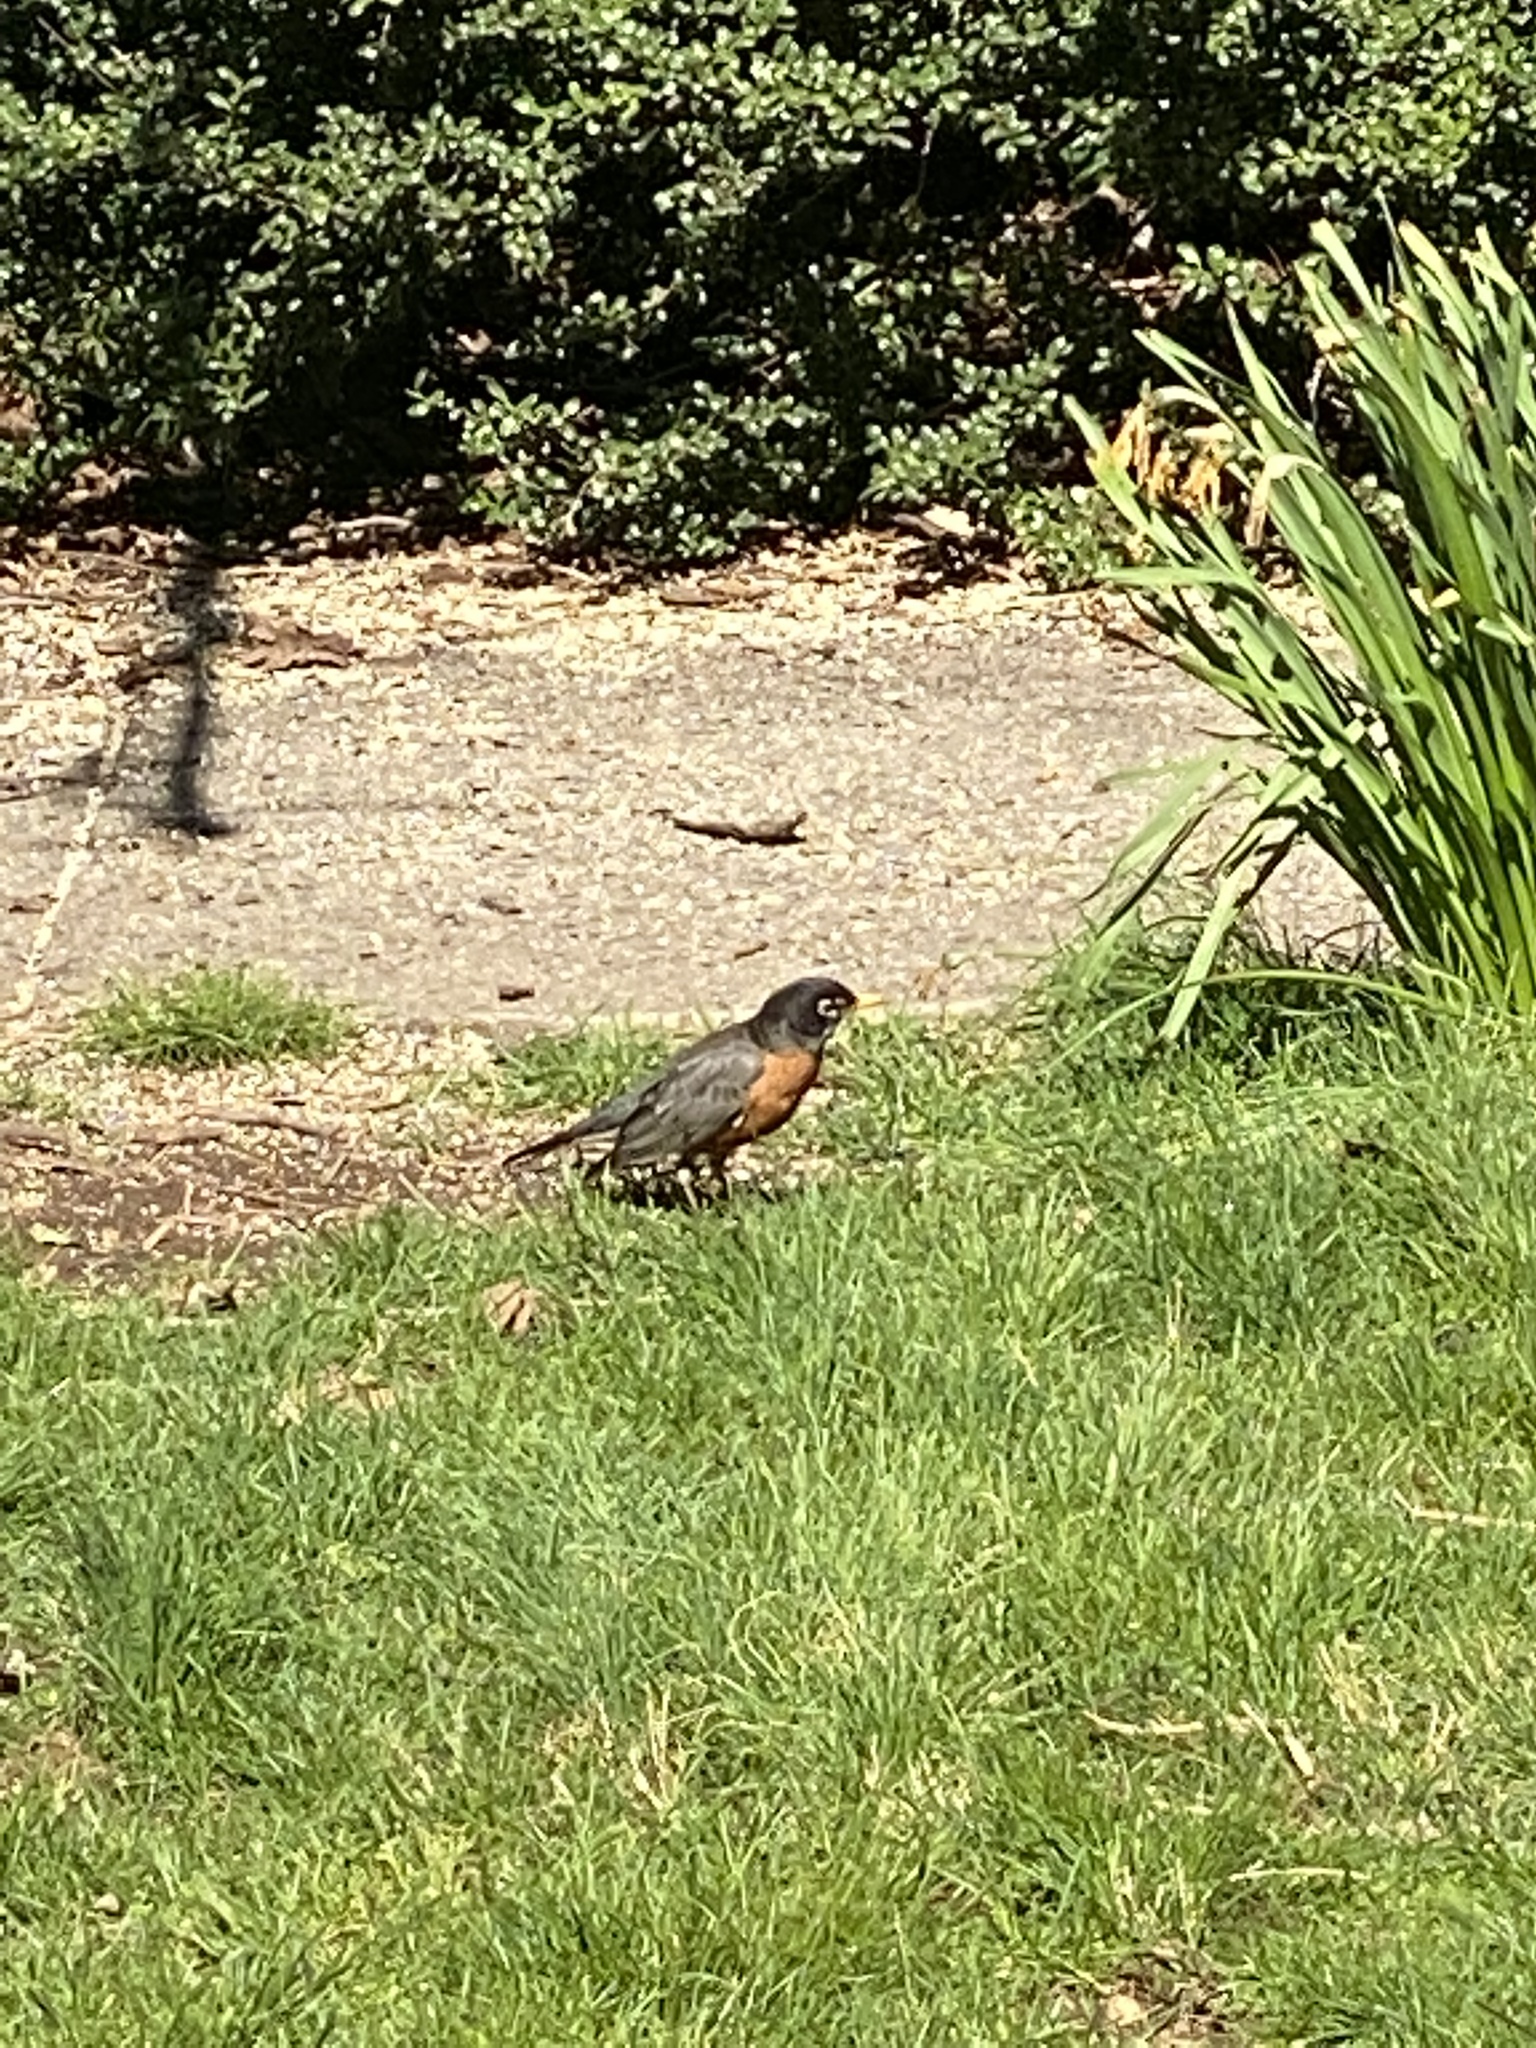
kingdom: Animalia
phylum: Chordata
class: Aves
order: Passeriformes
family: Turdidae
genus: Turdus
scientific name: Turdus migratorius
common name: American robin
